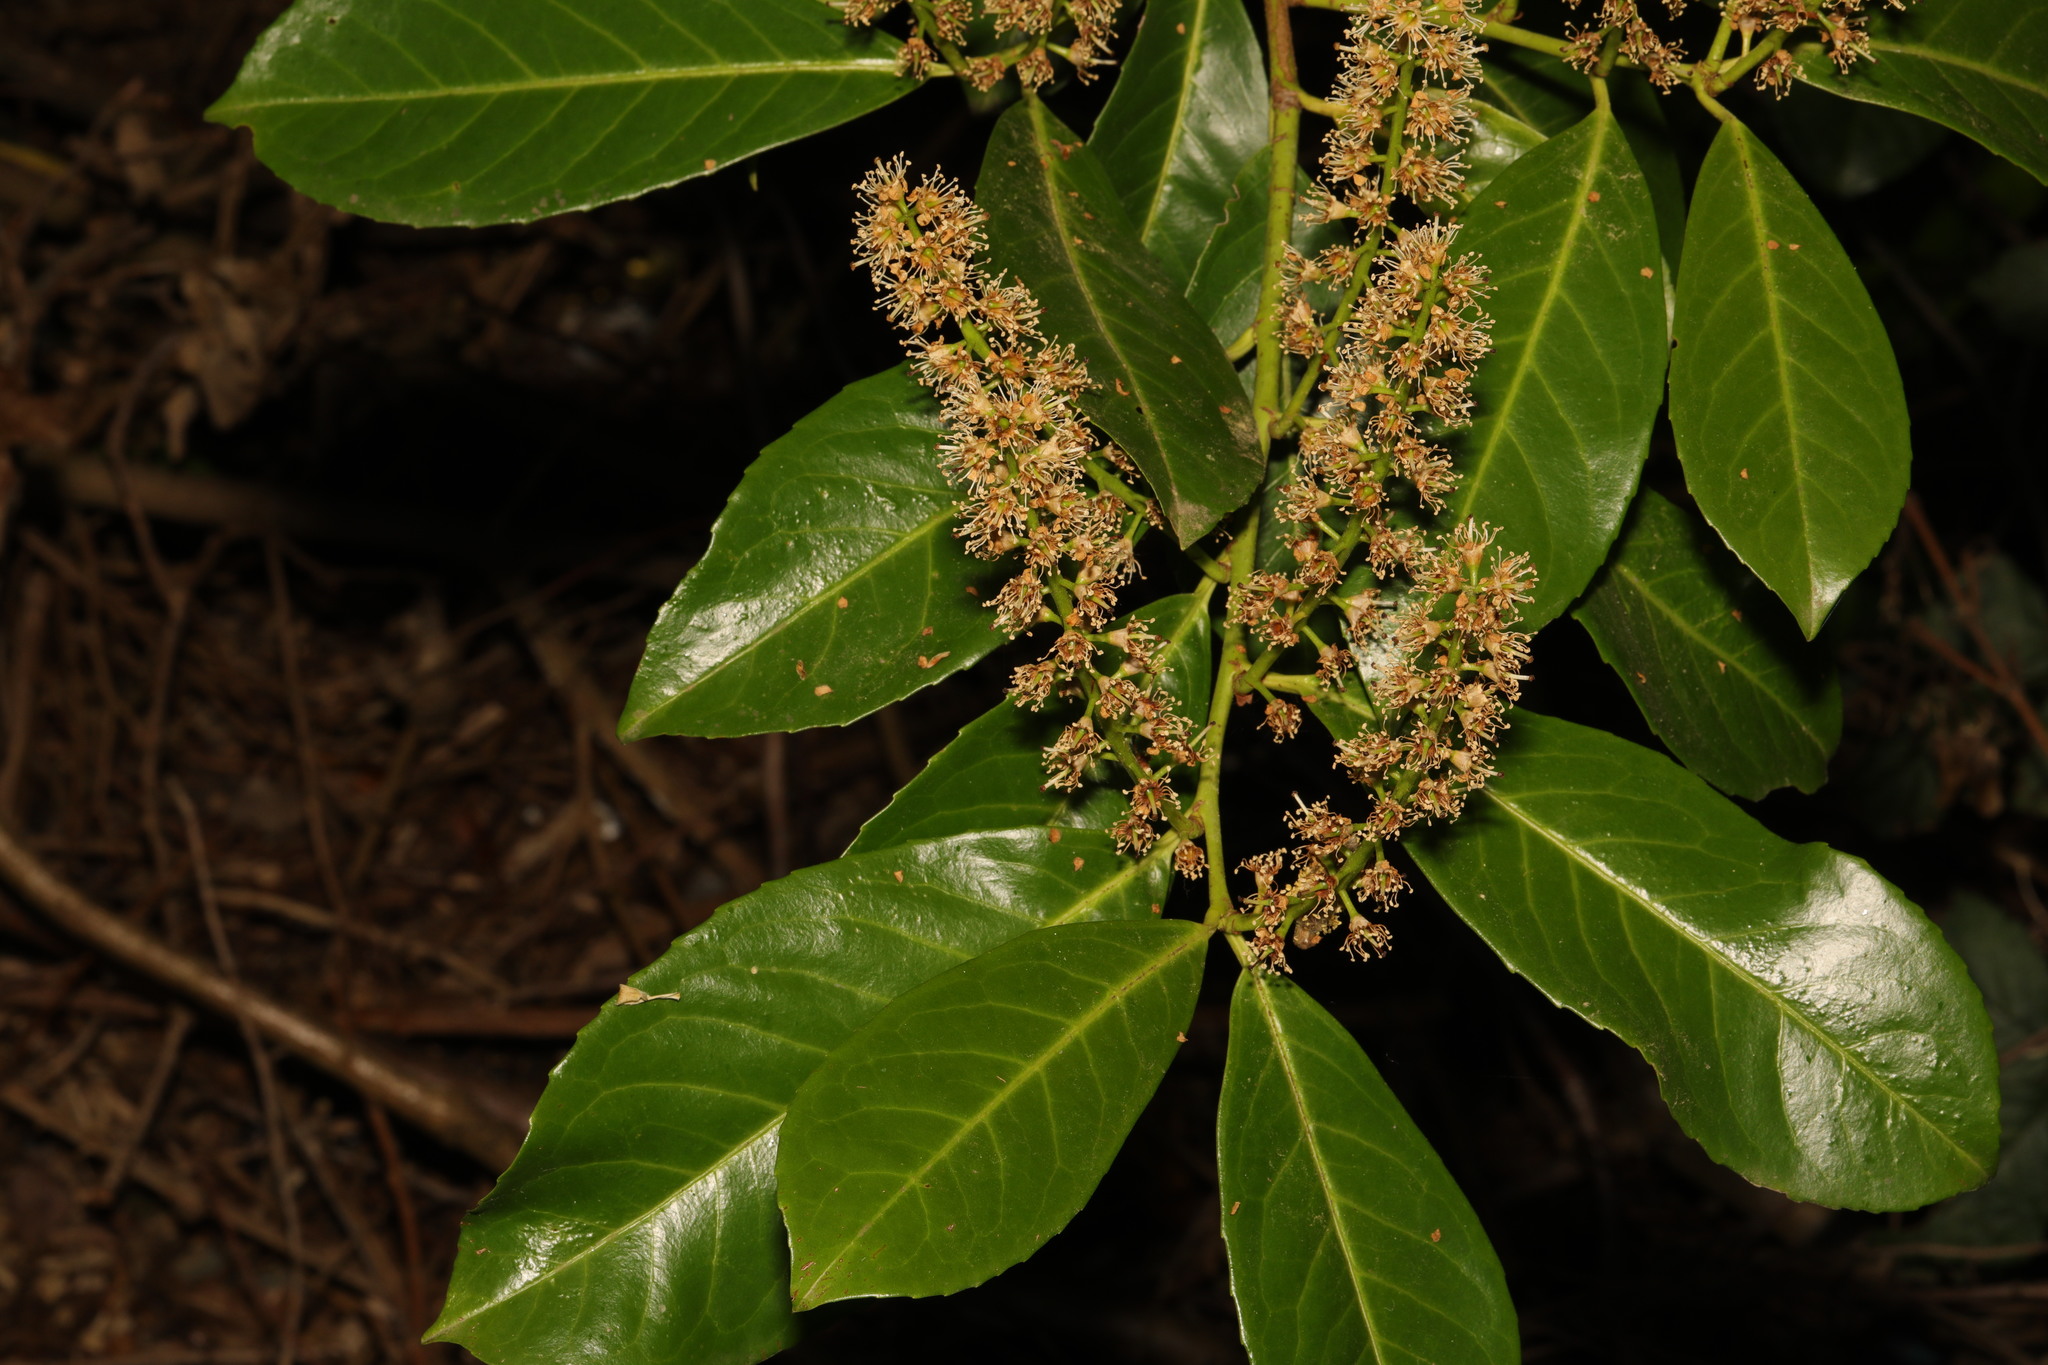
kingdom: Plantae
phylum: Tracheophyta
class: Magnoliopsida
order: Rosales
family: Rosaceae
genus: Prunus
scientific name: Prunus laurocerasus
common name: Cherry laurel
